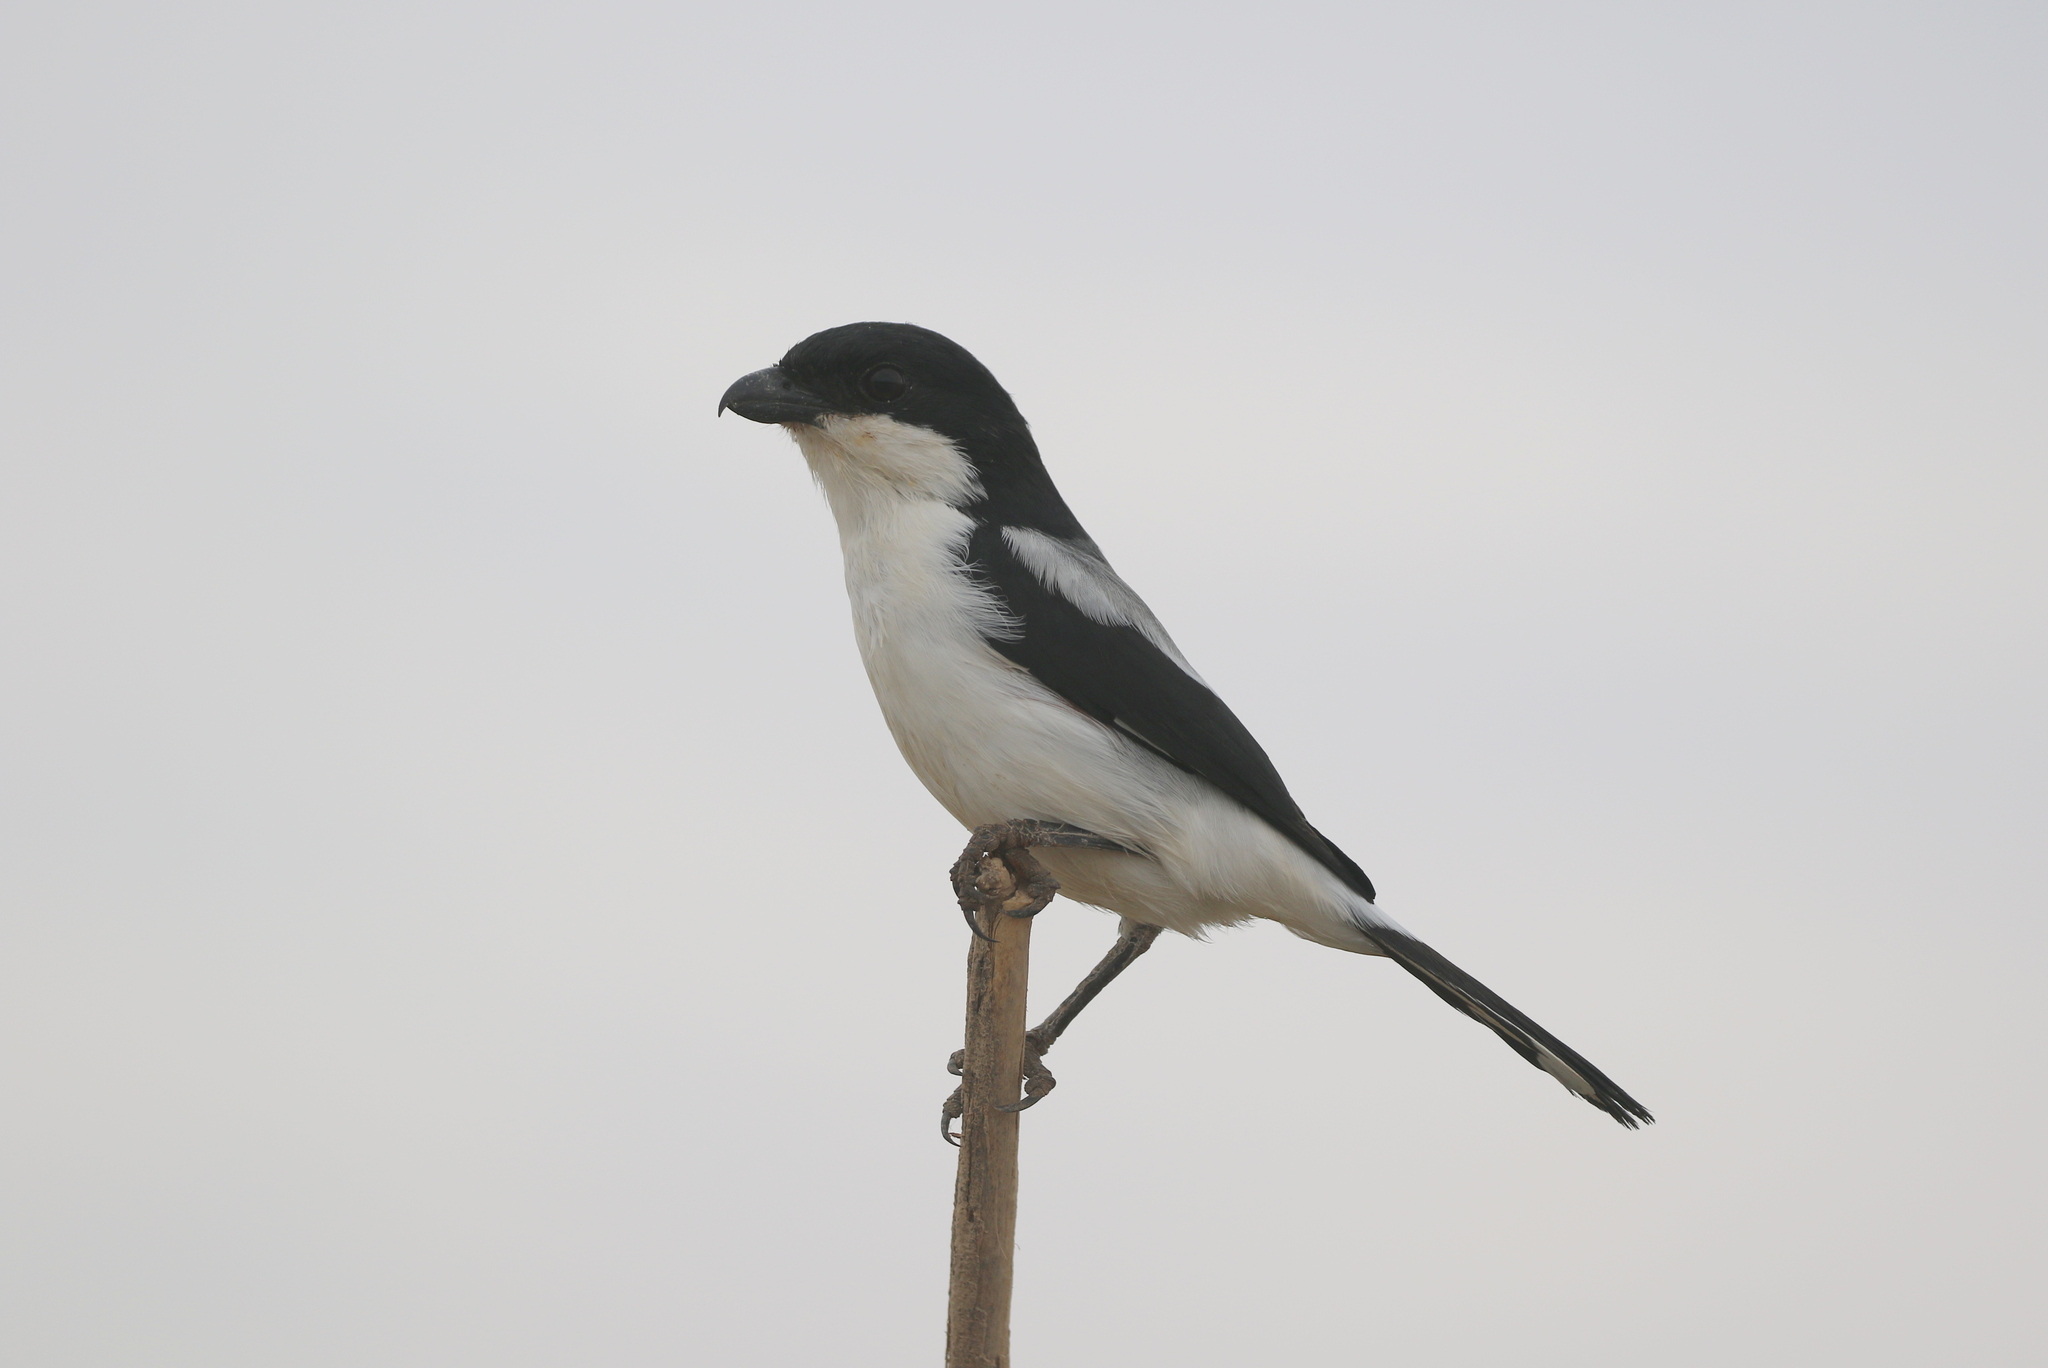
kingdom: Animalia
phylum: Chordata
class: Aves
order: Passeriformes
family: Laniidae
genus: Lanius
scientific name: Lanius dorsalis
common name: Taita fiscal
